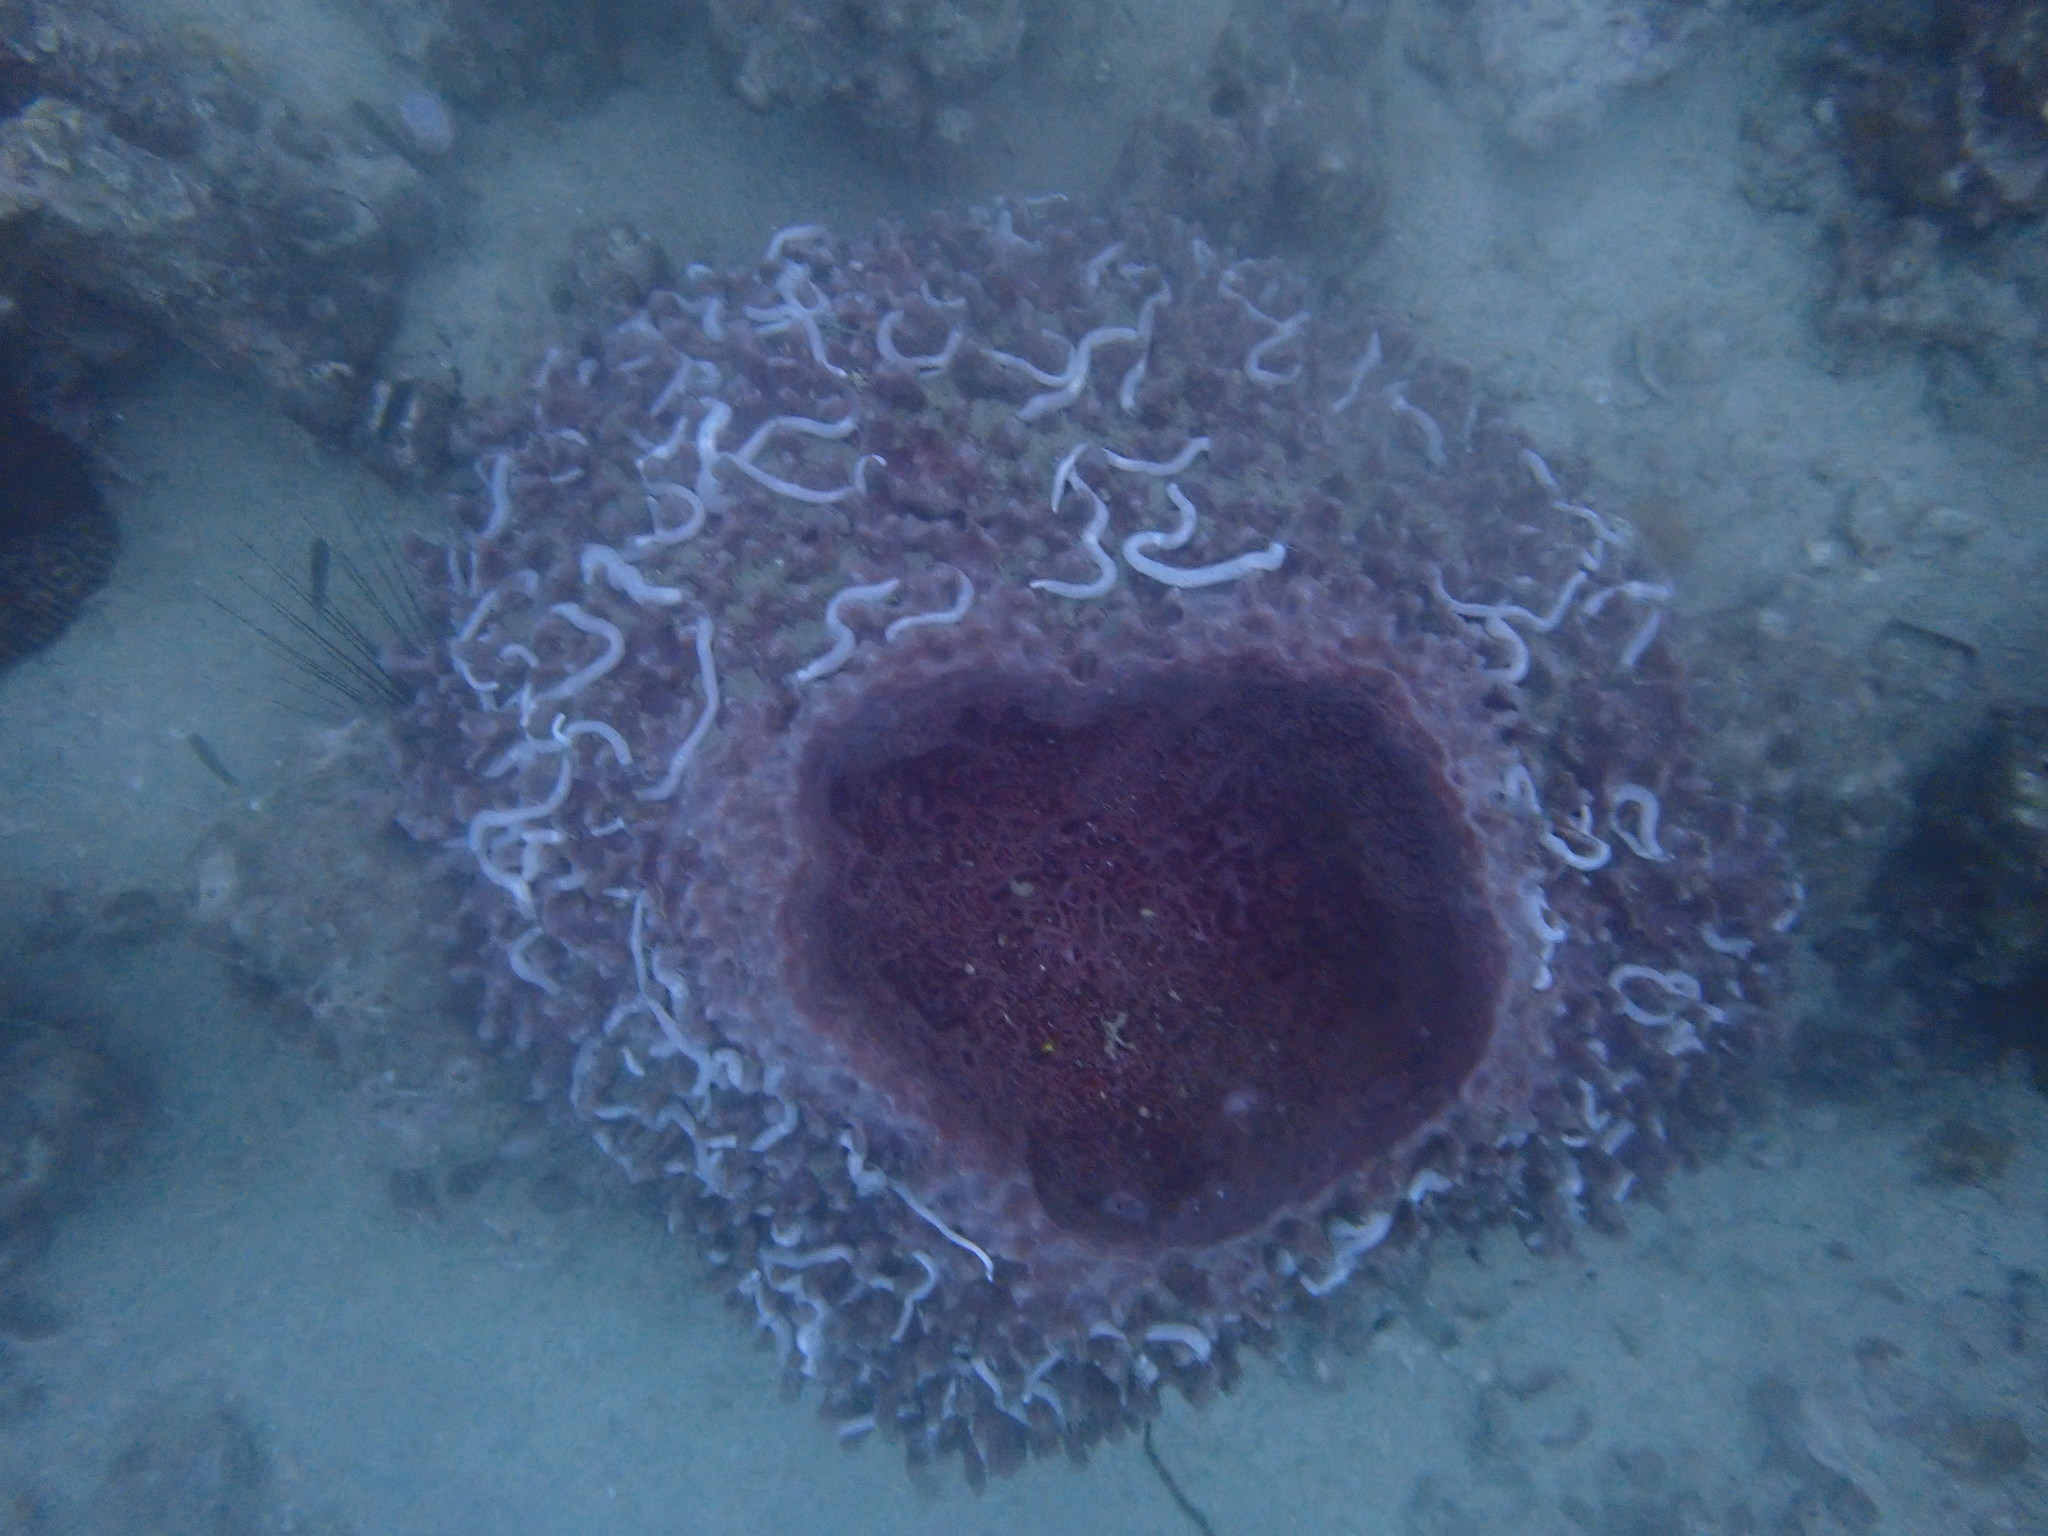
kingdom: Animalia
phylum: Porifera
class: Demospongiae
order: Haplosclerida
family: Petrosiidae
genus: Xestospongia
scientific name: Xestospongia testudinaria
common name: Barrel sponge
